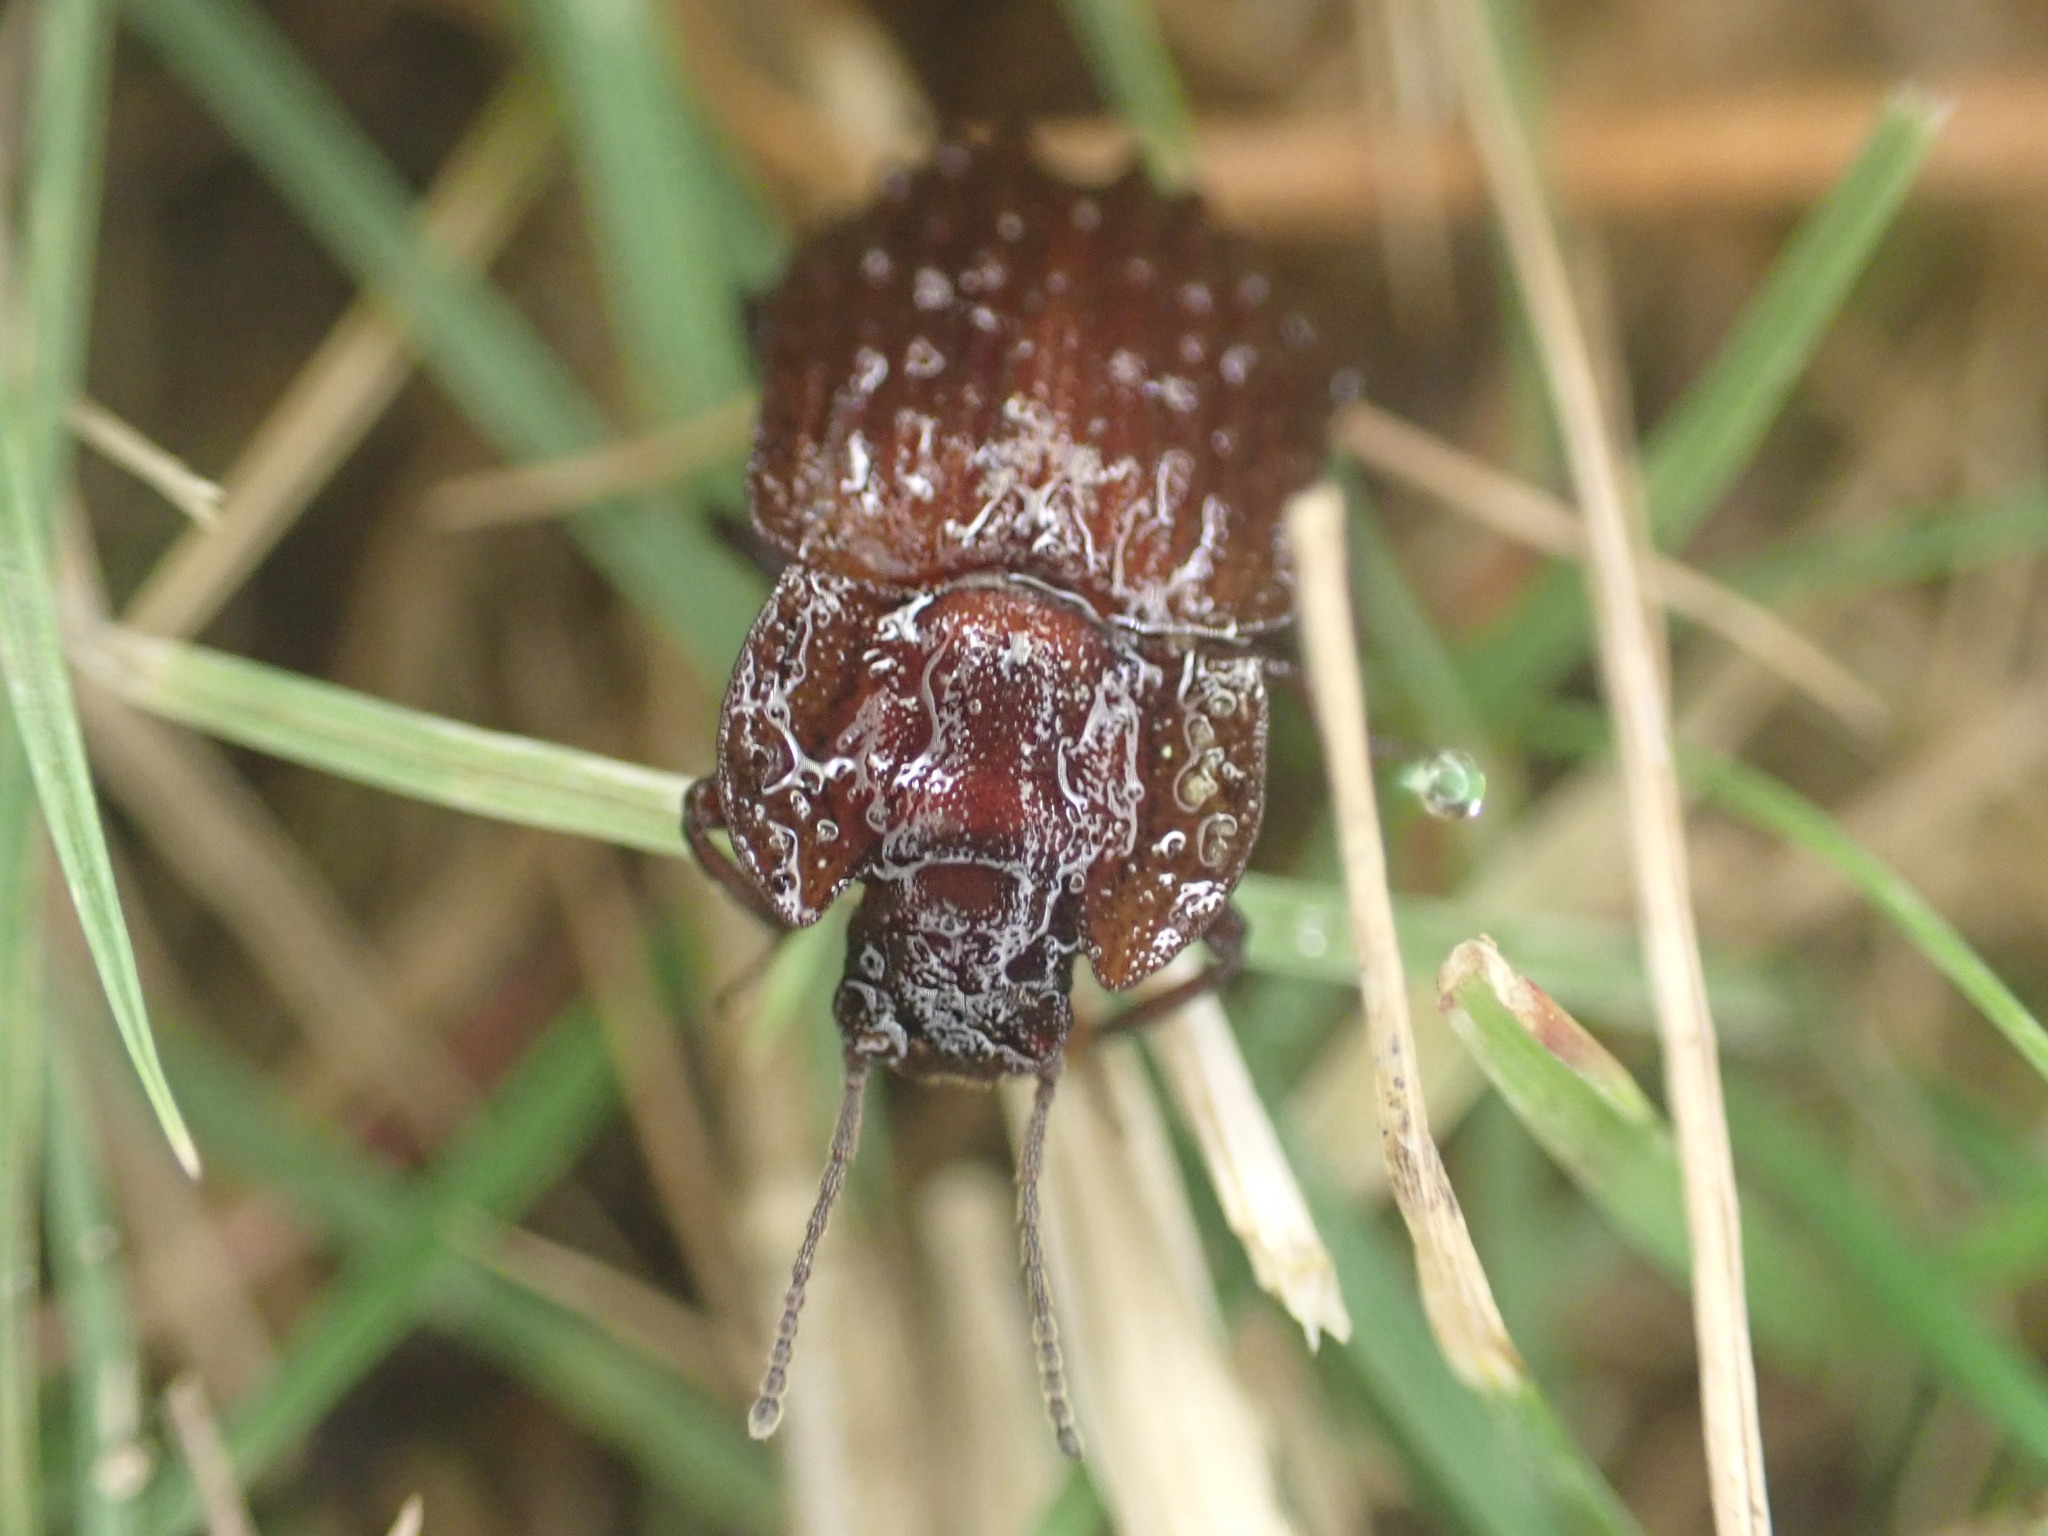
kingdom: Animalia
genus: Mitua
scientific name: Mitua
